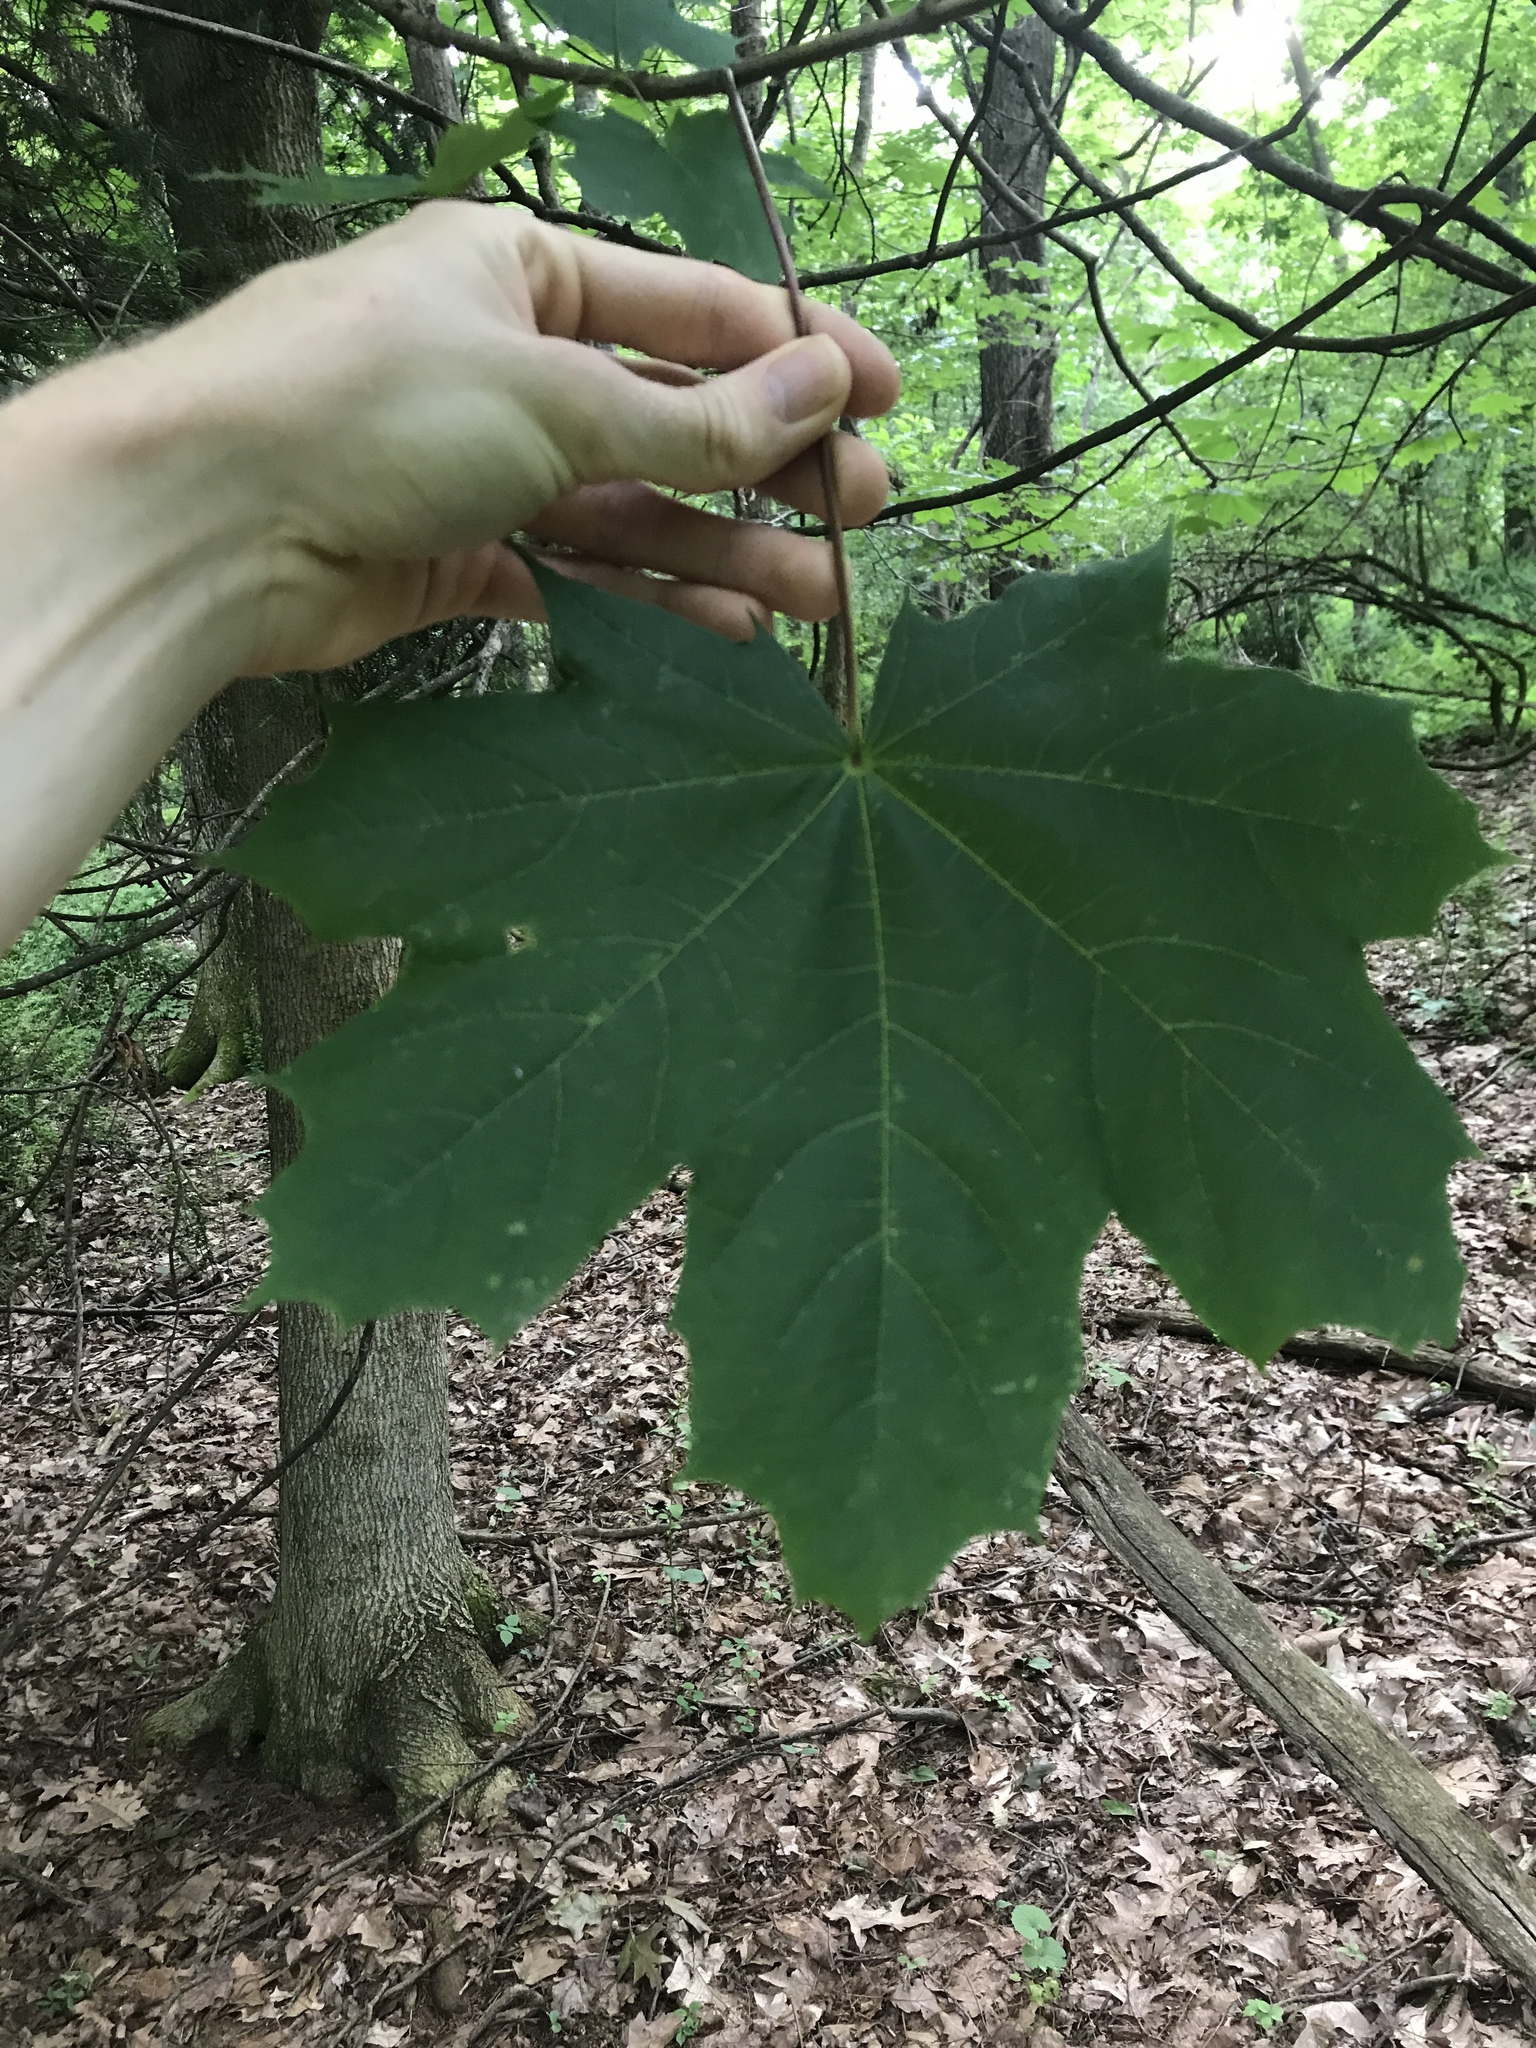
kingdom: Plantae
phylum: Tracheophyta
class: Magnoliopsida
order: Sapindales
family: Sapindaceae
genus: Acer
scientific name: Acer platanoides
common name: Norway maple
